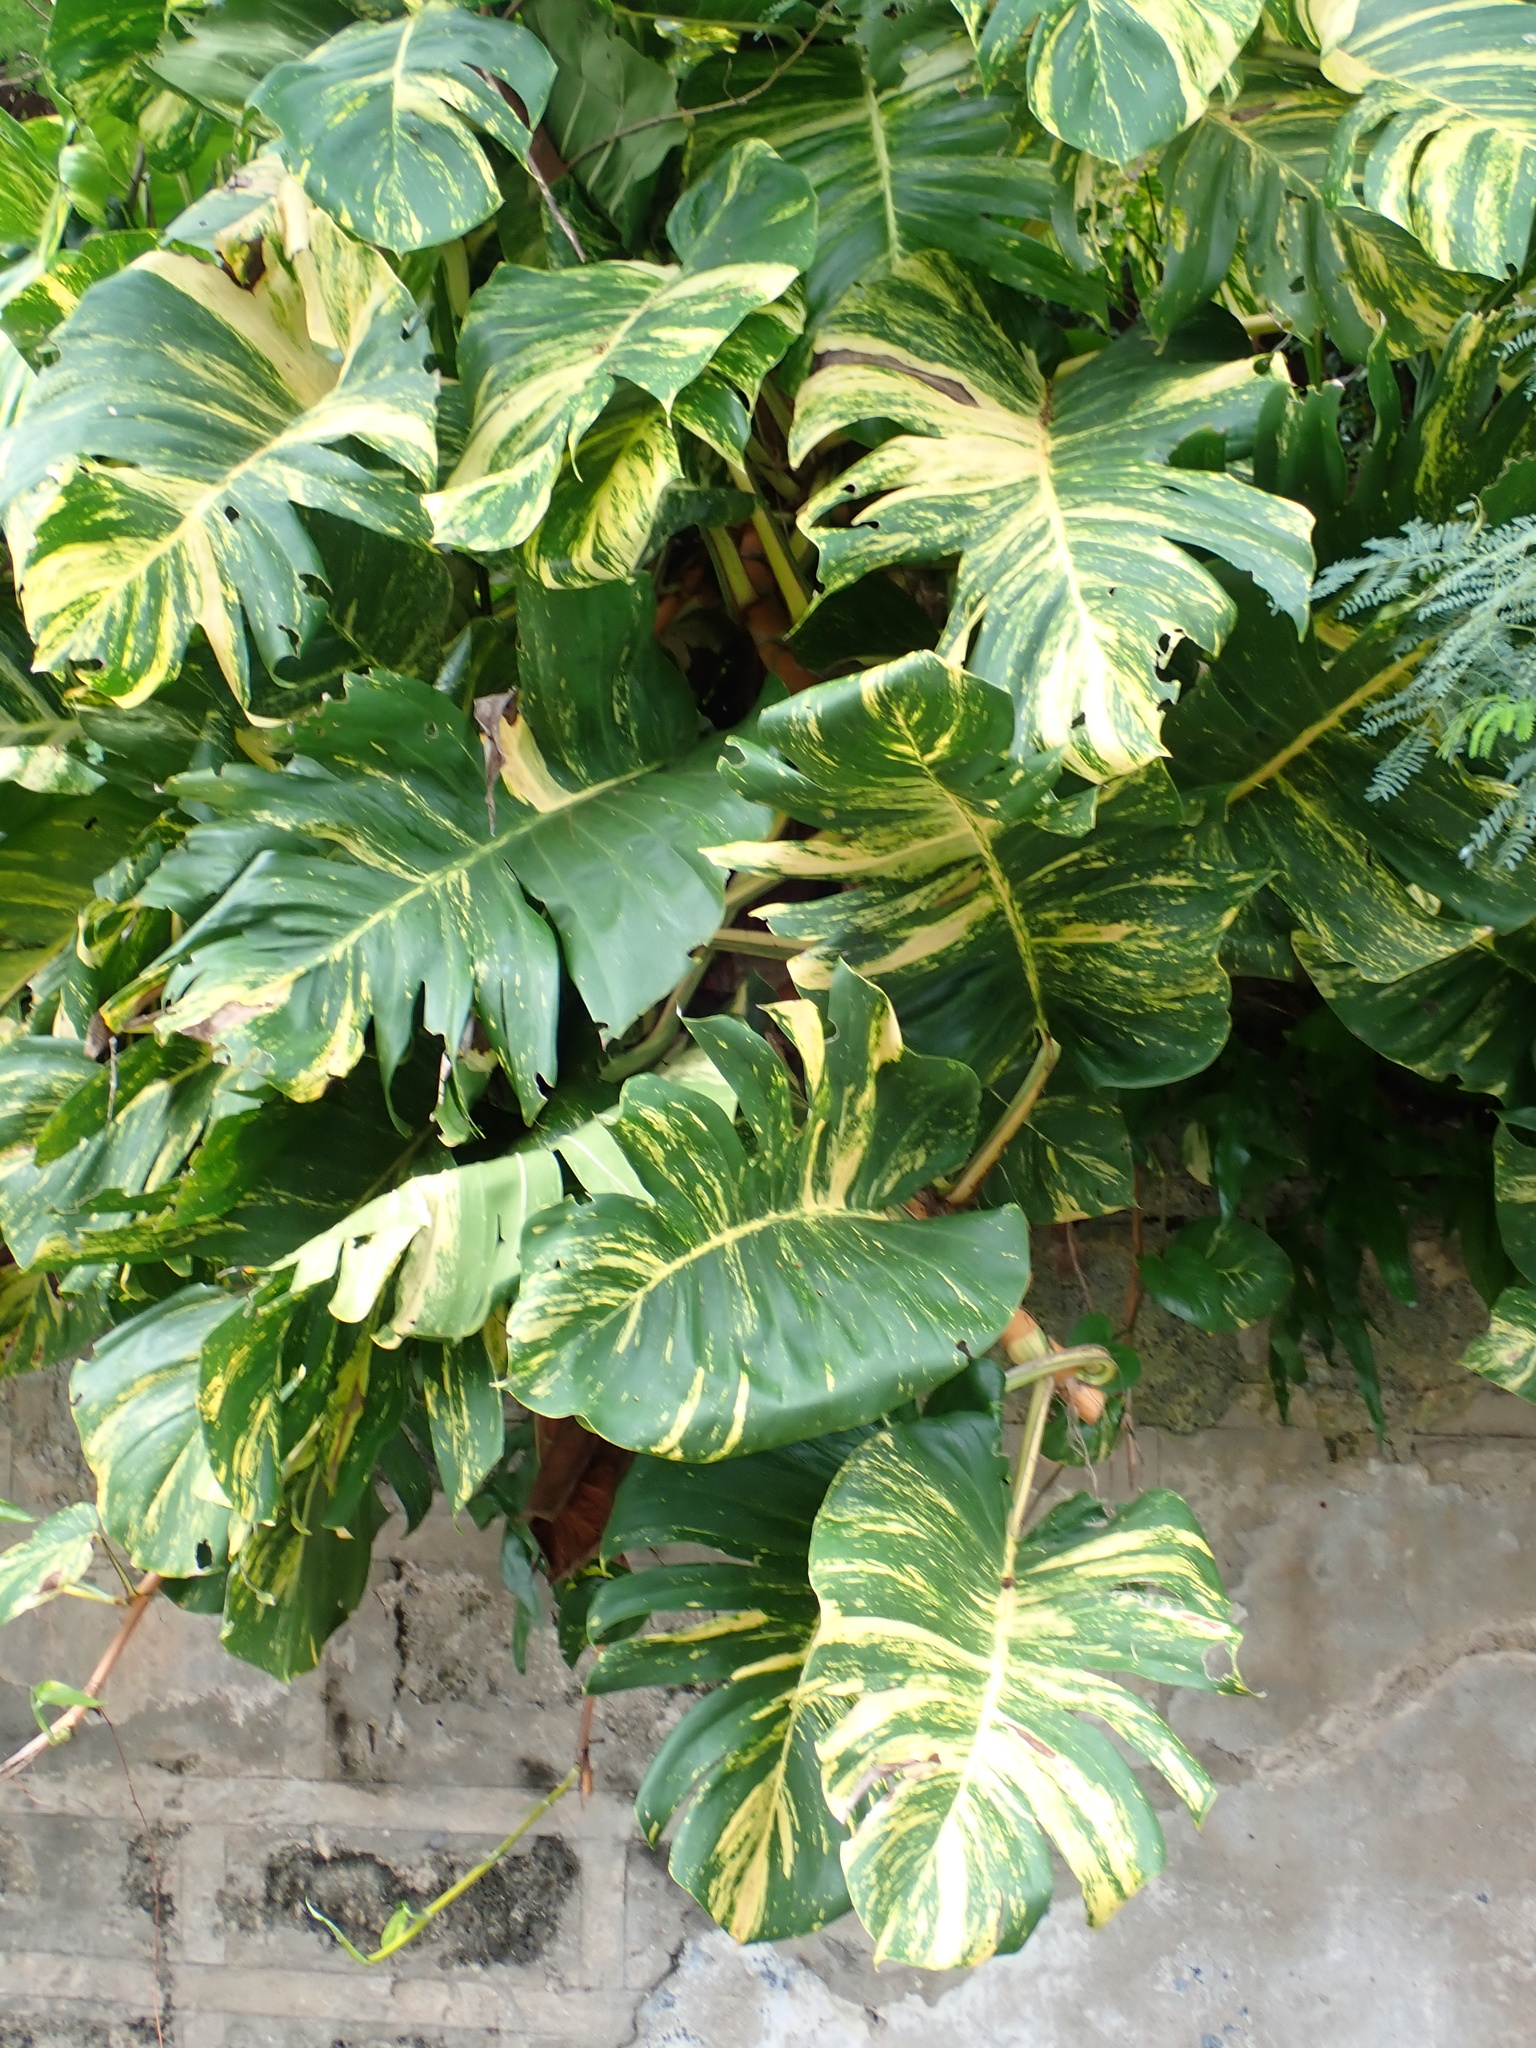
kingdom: Plantae
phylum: Tracheophyta
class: Liliopsida
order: Alismatales
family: Araceae
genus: Epipremnum
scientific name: Epipremnum aureum
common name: Golden hunter's-robe
